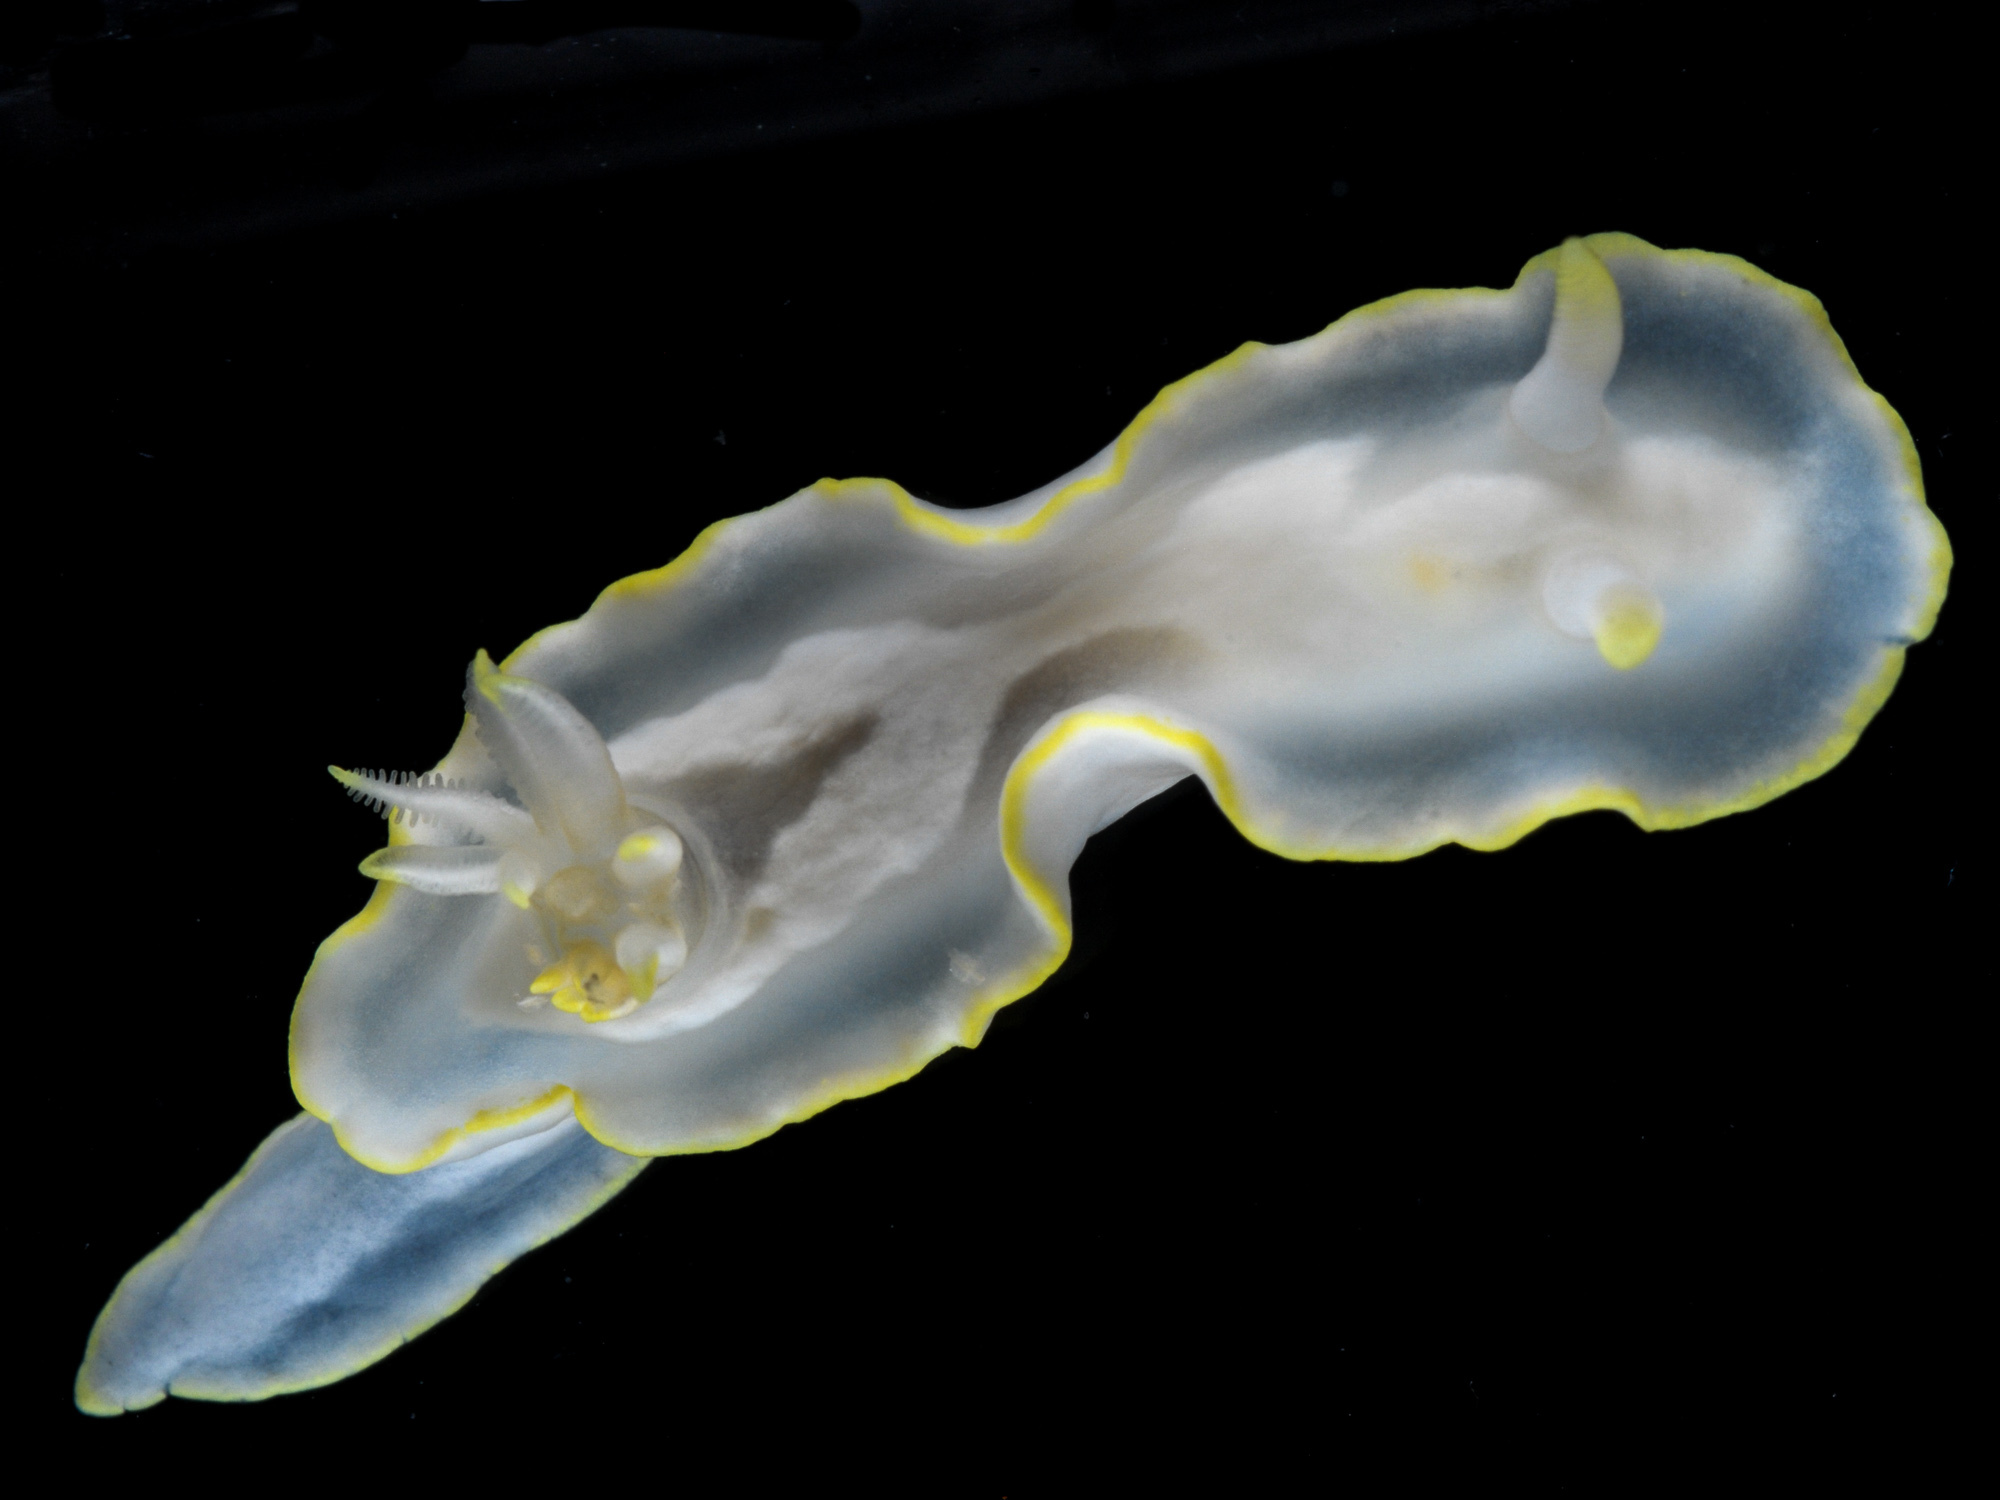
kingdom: Animalia
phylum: Mollusca
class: Gastropoda
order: Nudibranchia
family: Chromodorididae
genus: Glossodoris
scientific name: Glossodoris pallida
